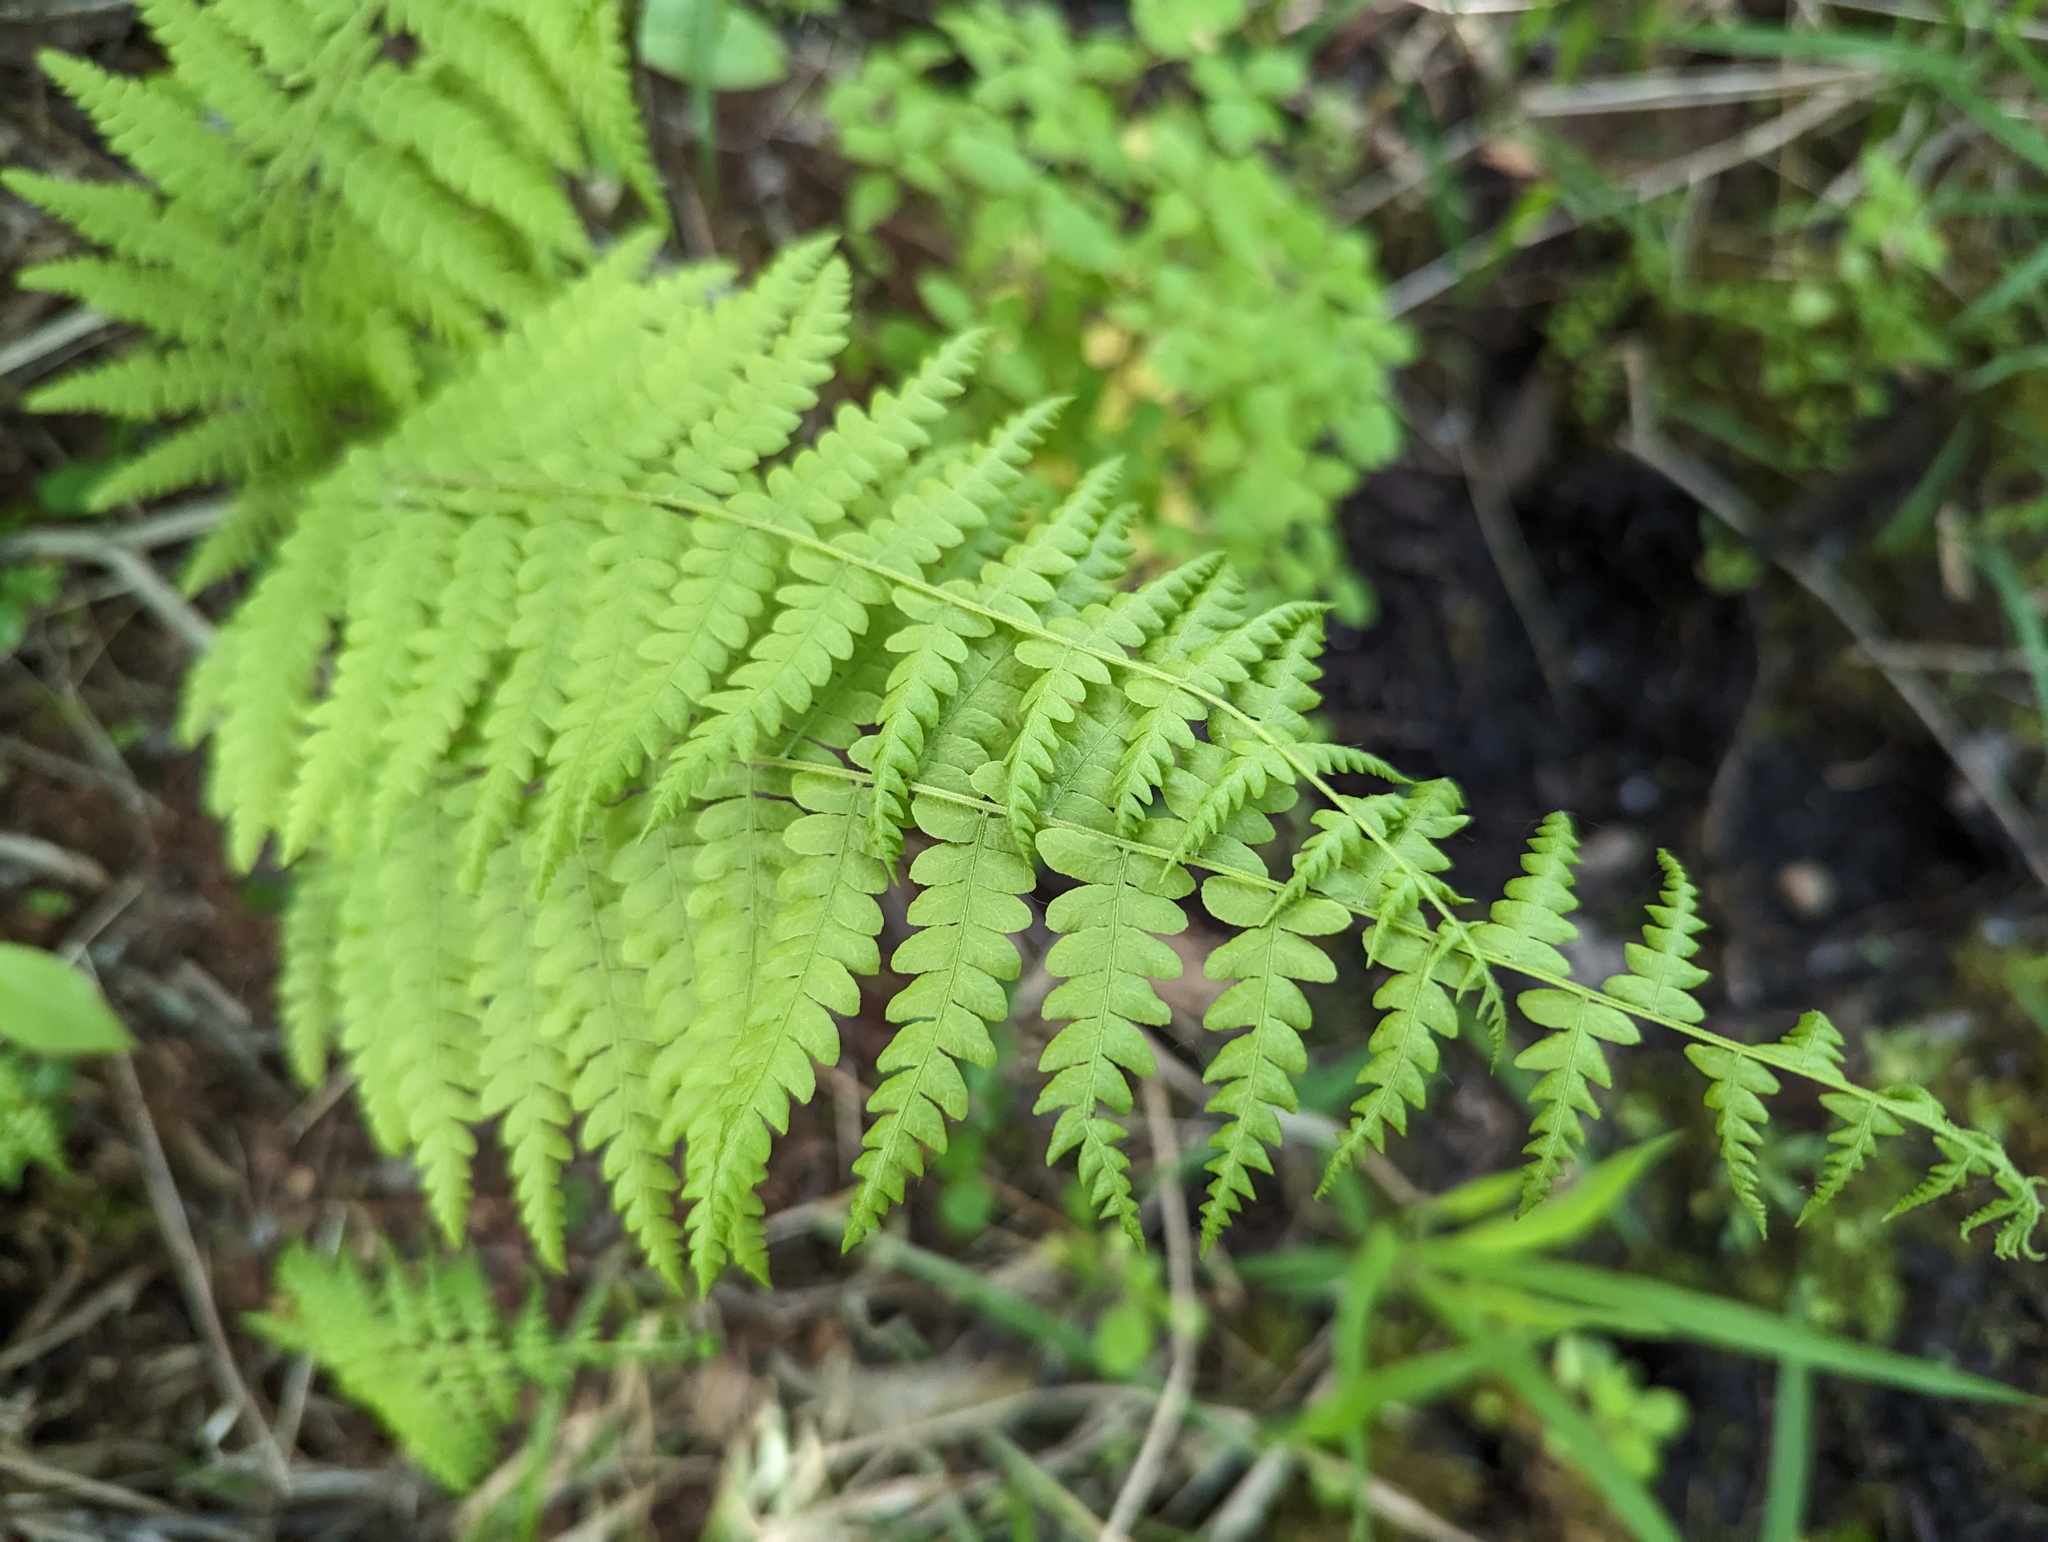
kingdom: Plantae
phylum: Tracheophyta
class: Polypodiopsida
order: Polypodiales
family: Thelypteridaceae
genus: Thelypteris
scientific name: Thelypteris palustris
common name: Marsh fern
